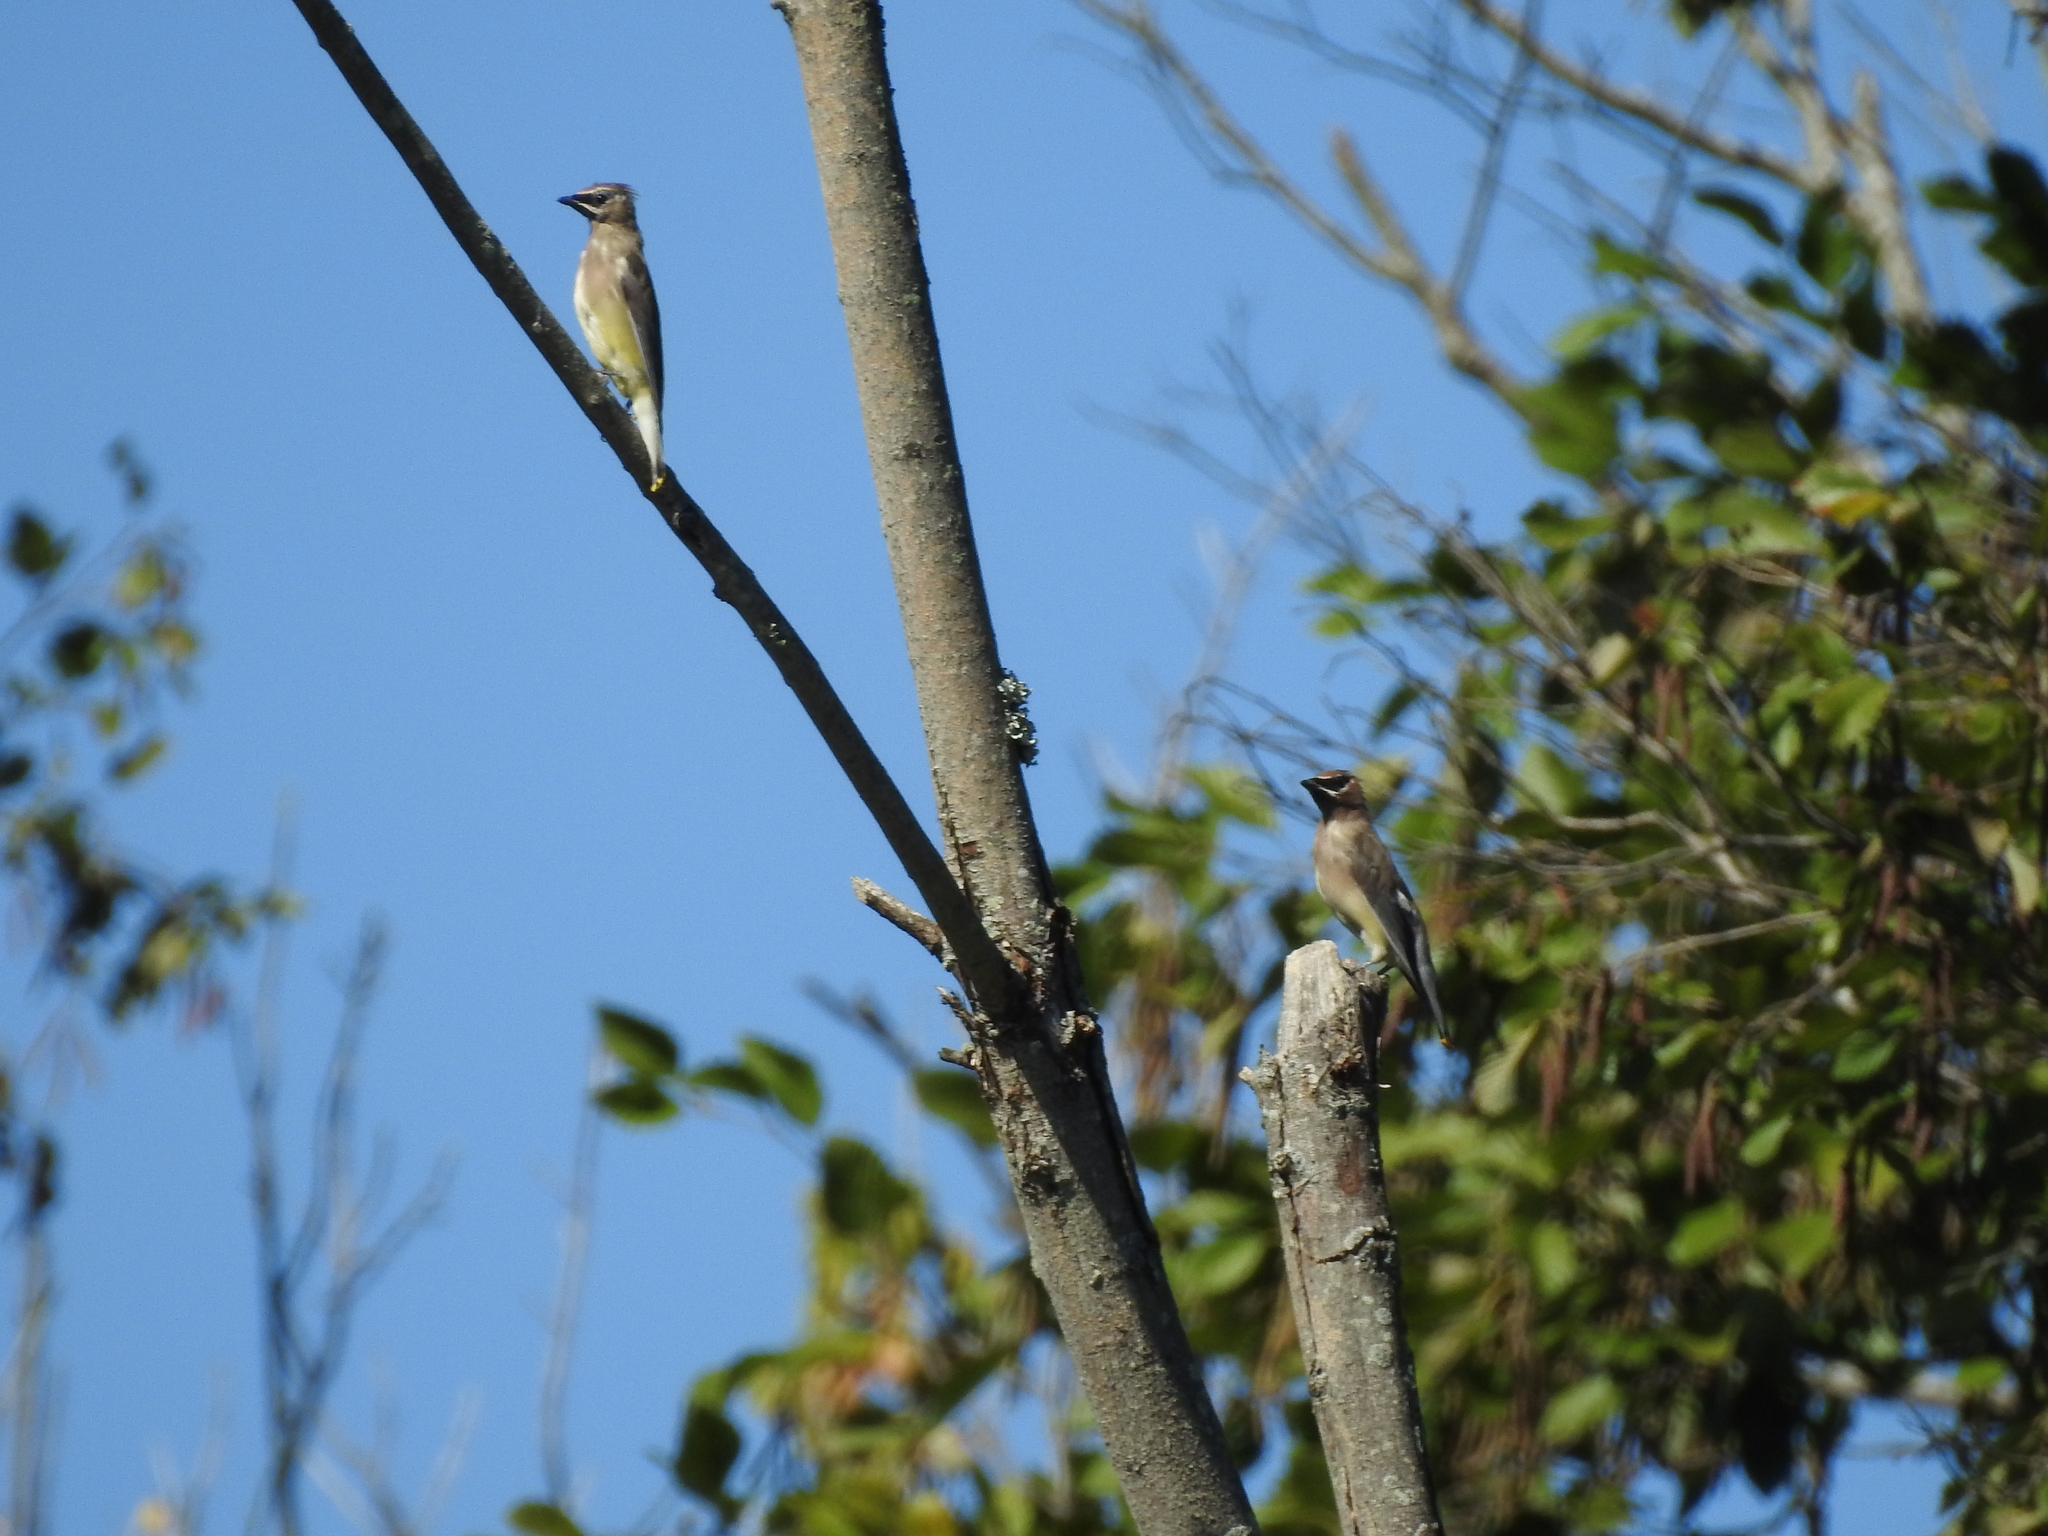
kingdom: Animalia
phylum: Chordata
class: Aves
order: Passeriformes
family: Bombycillidae
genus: Bombycilla
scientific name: Bombycilla cedrorum
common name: Cedar waxwing
